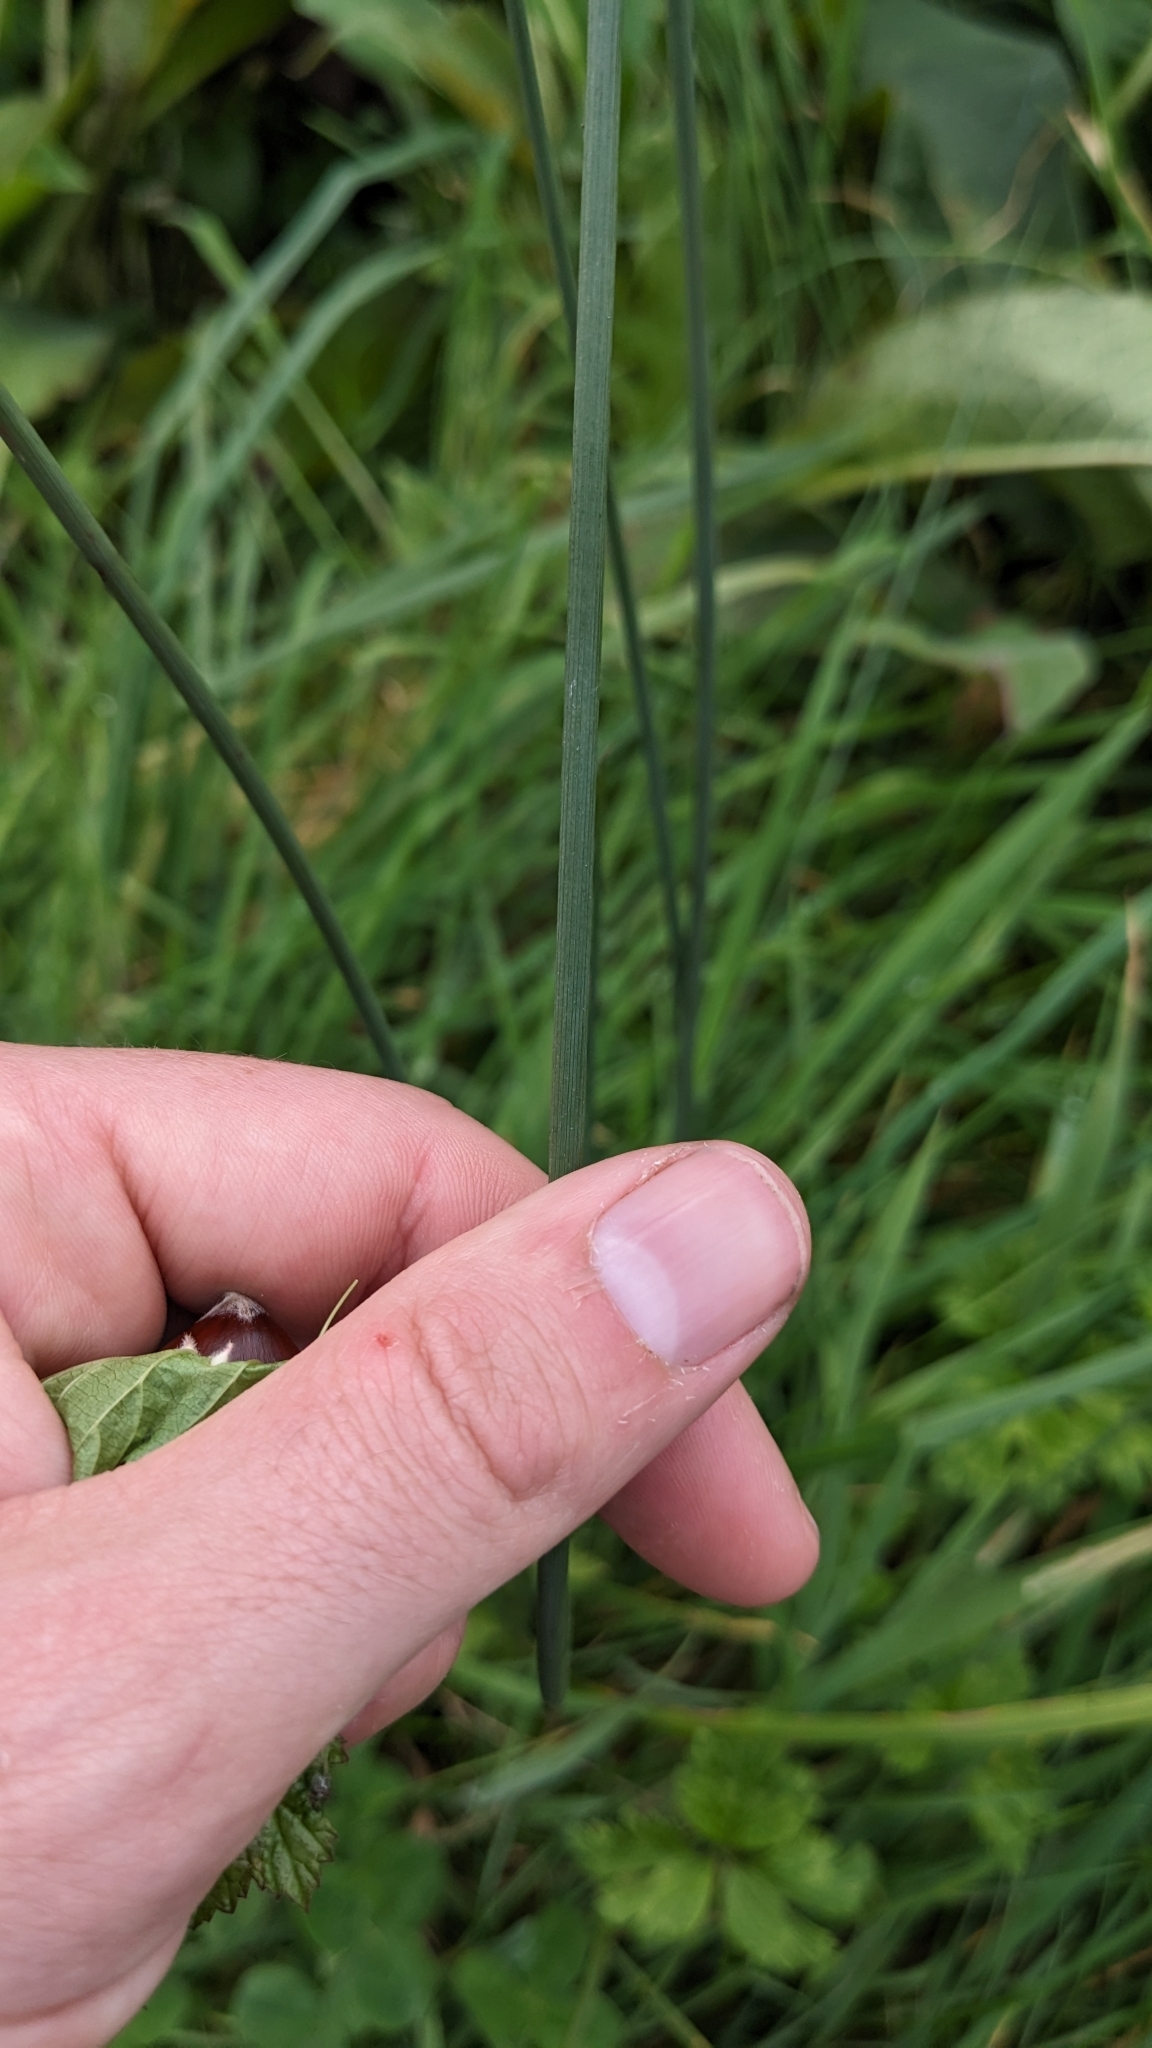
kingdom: Plantae
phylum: Tracheophyta
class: Liliopsida
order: Poales
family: Juncaceae
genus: Juncus
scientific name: Juncus inflexus
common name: Hard rush
